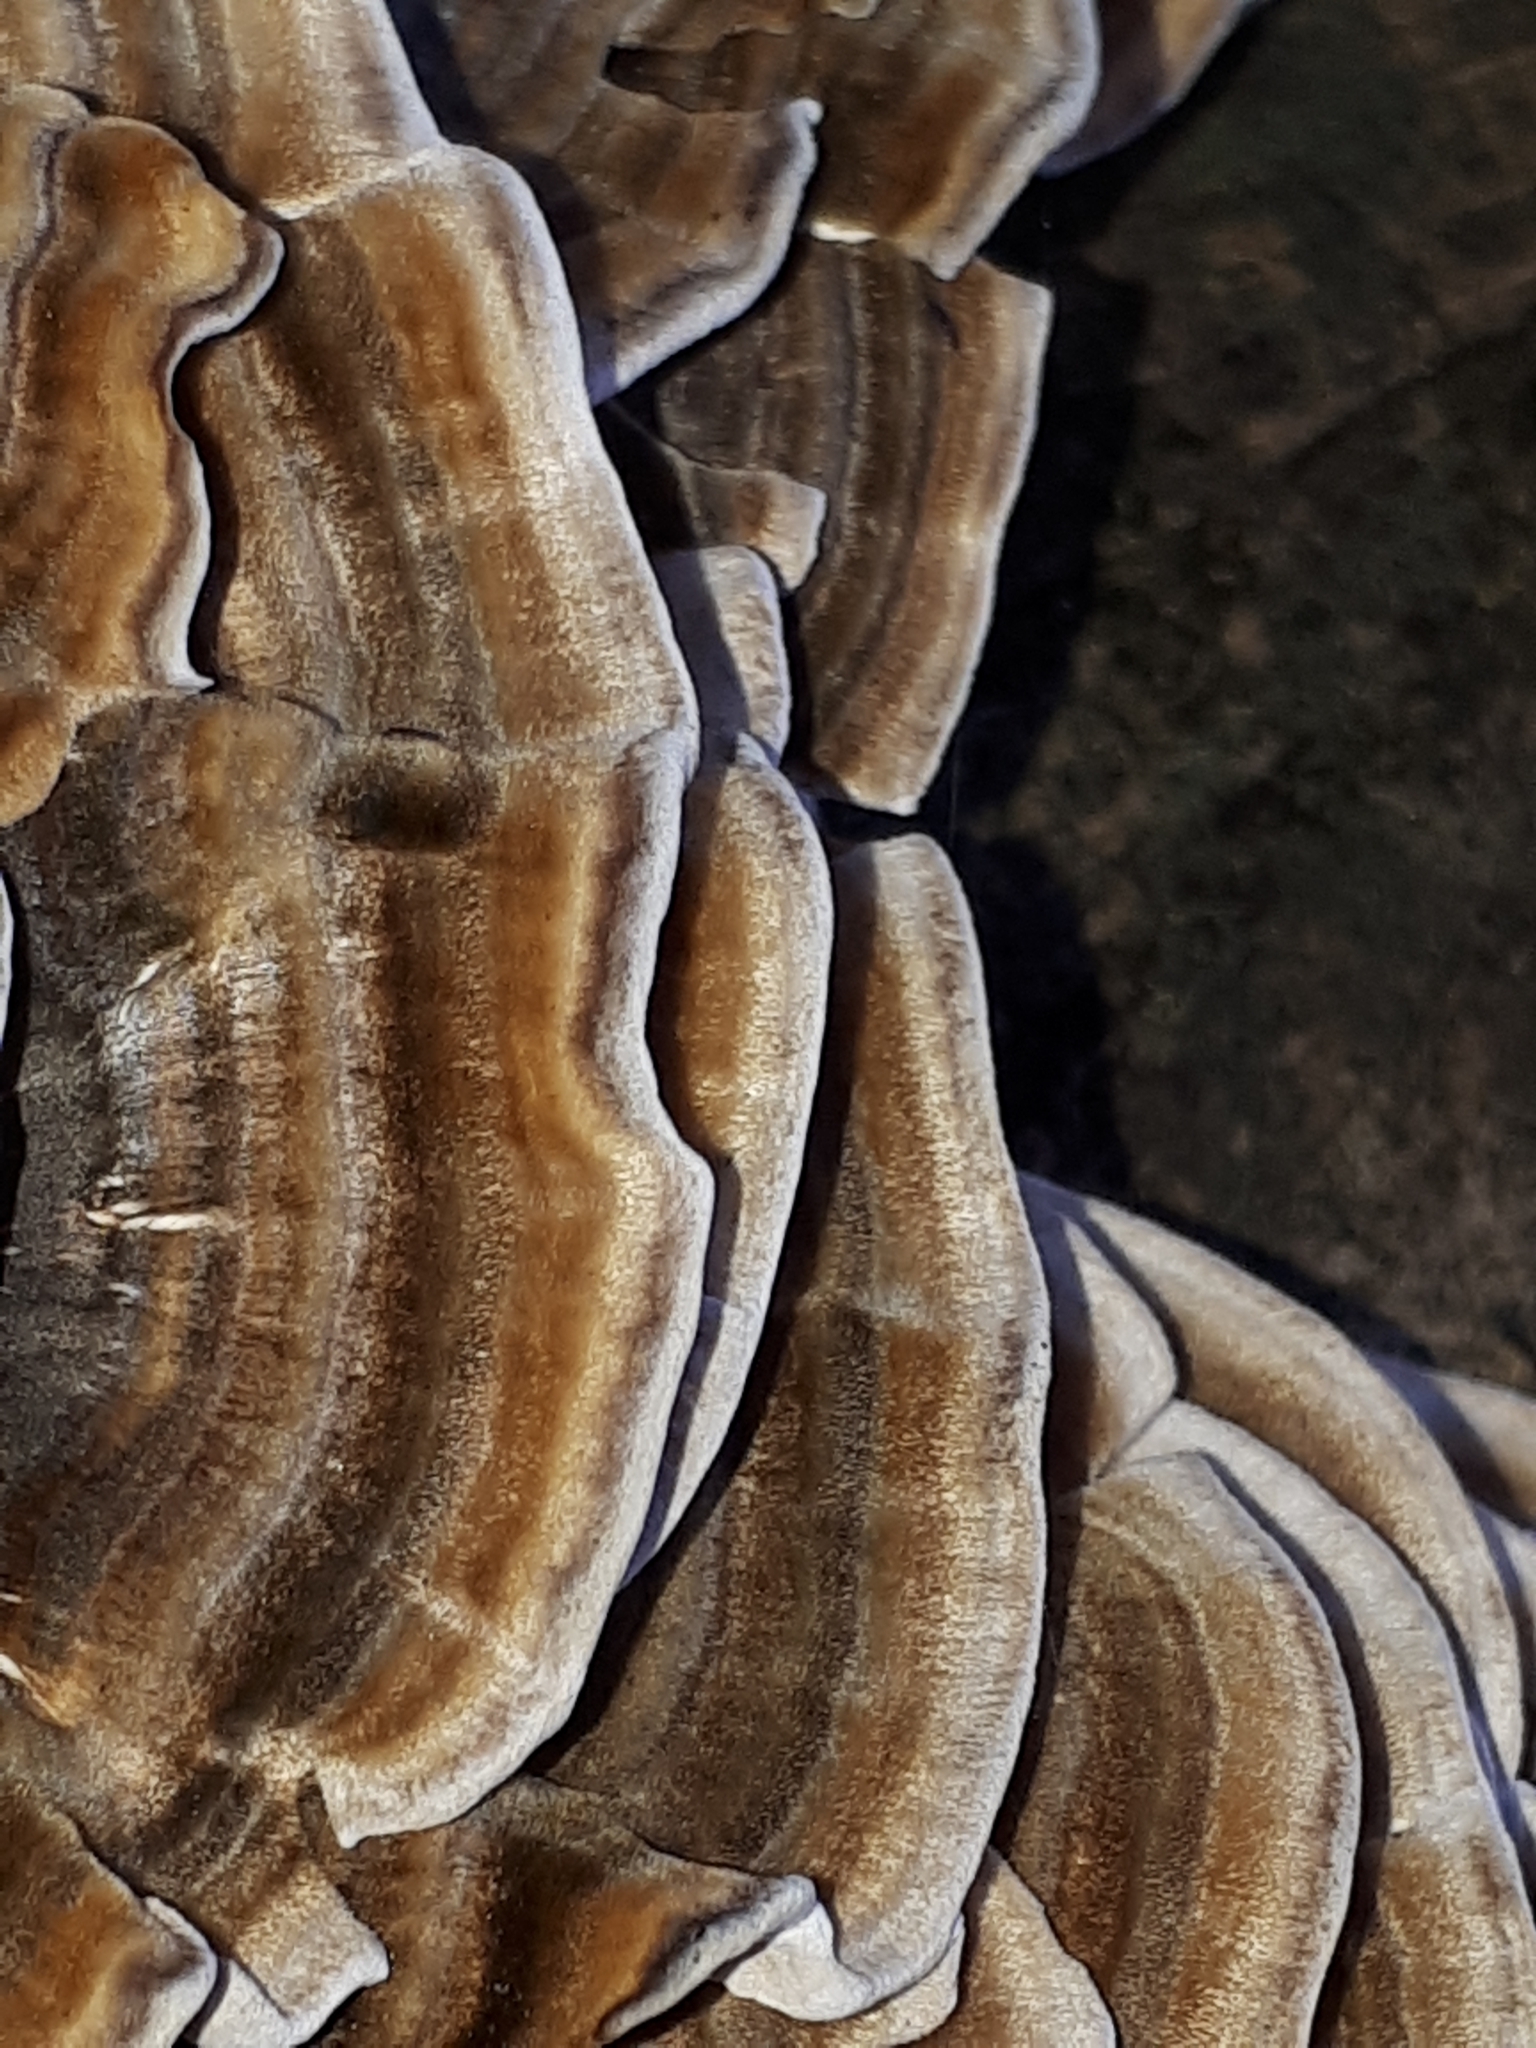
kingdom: Fungi
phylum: Basidiomycota
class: Agaricomycetes
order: Polyporales
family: Polyporaceae
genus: Trametes
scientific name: Trametes versicolor
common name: Turkeytail
